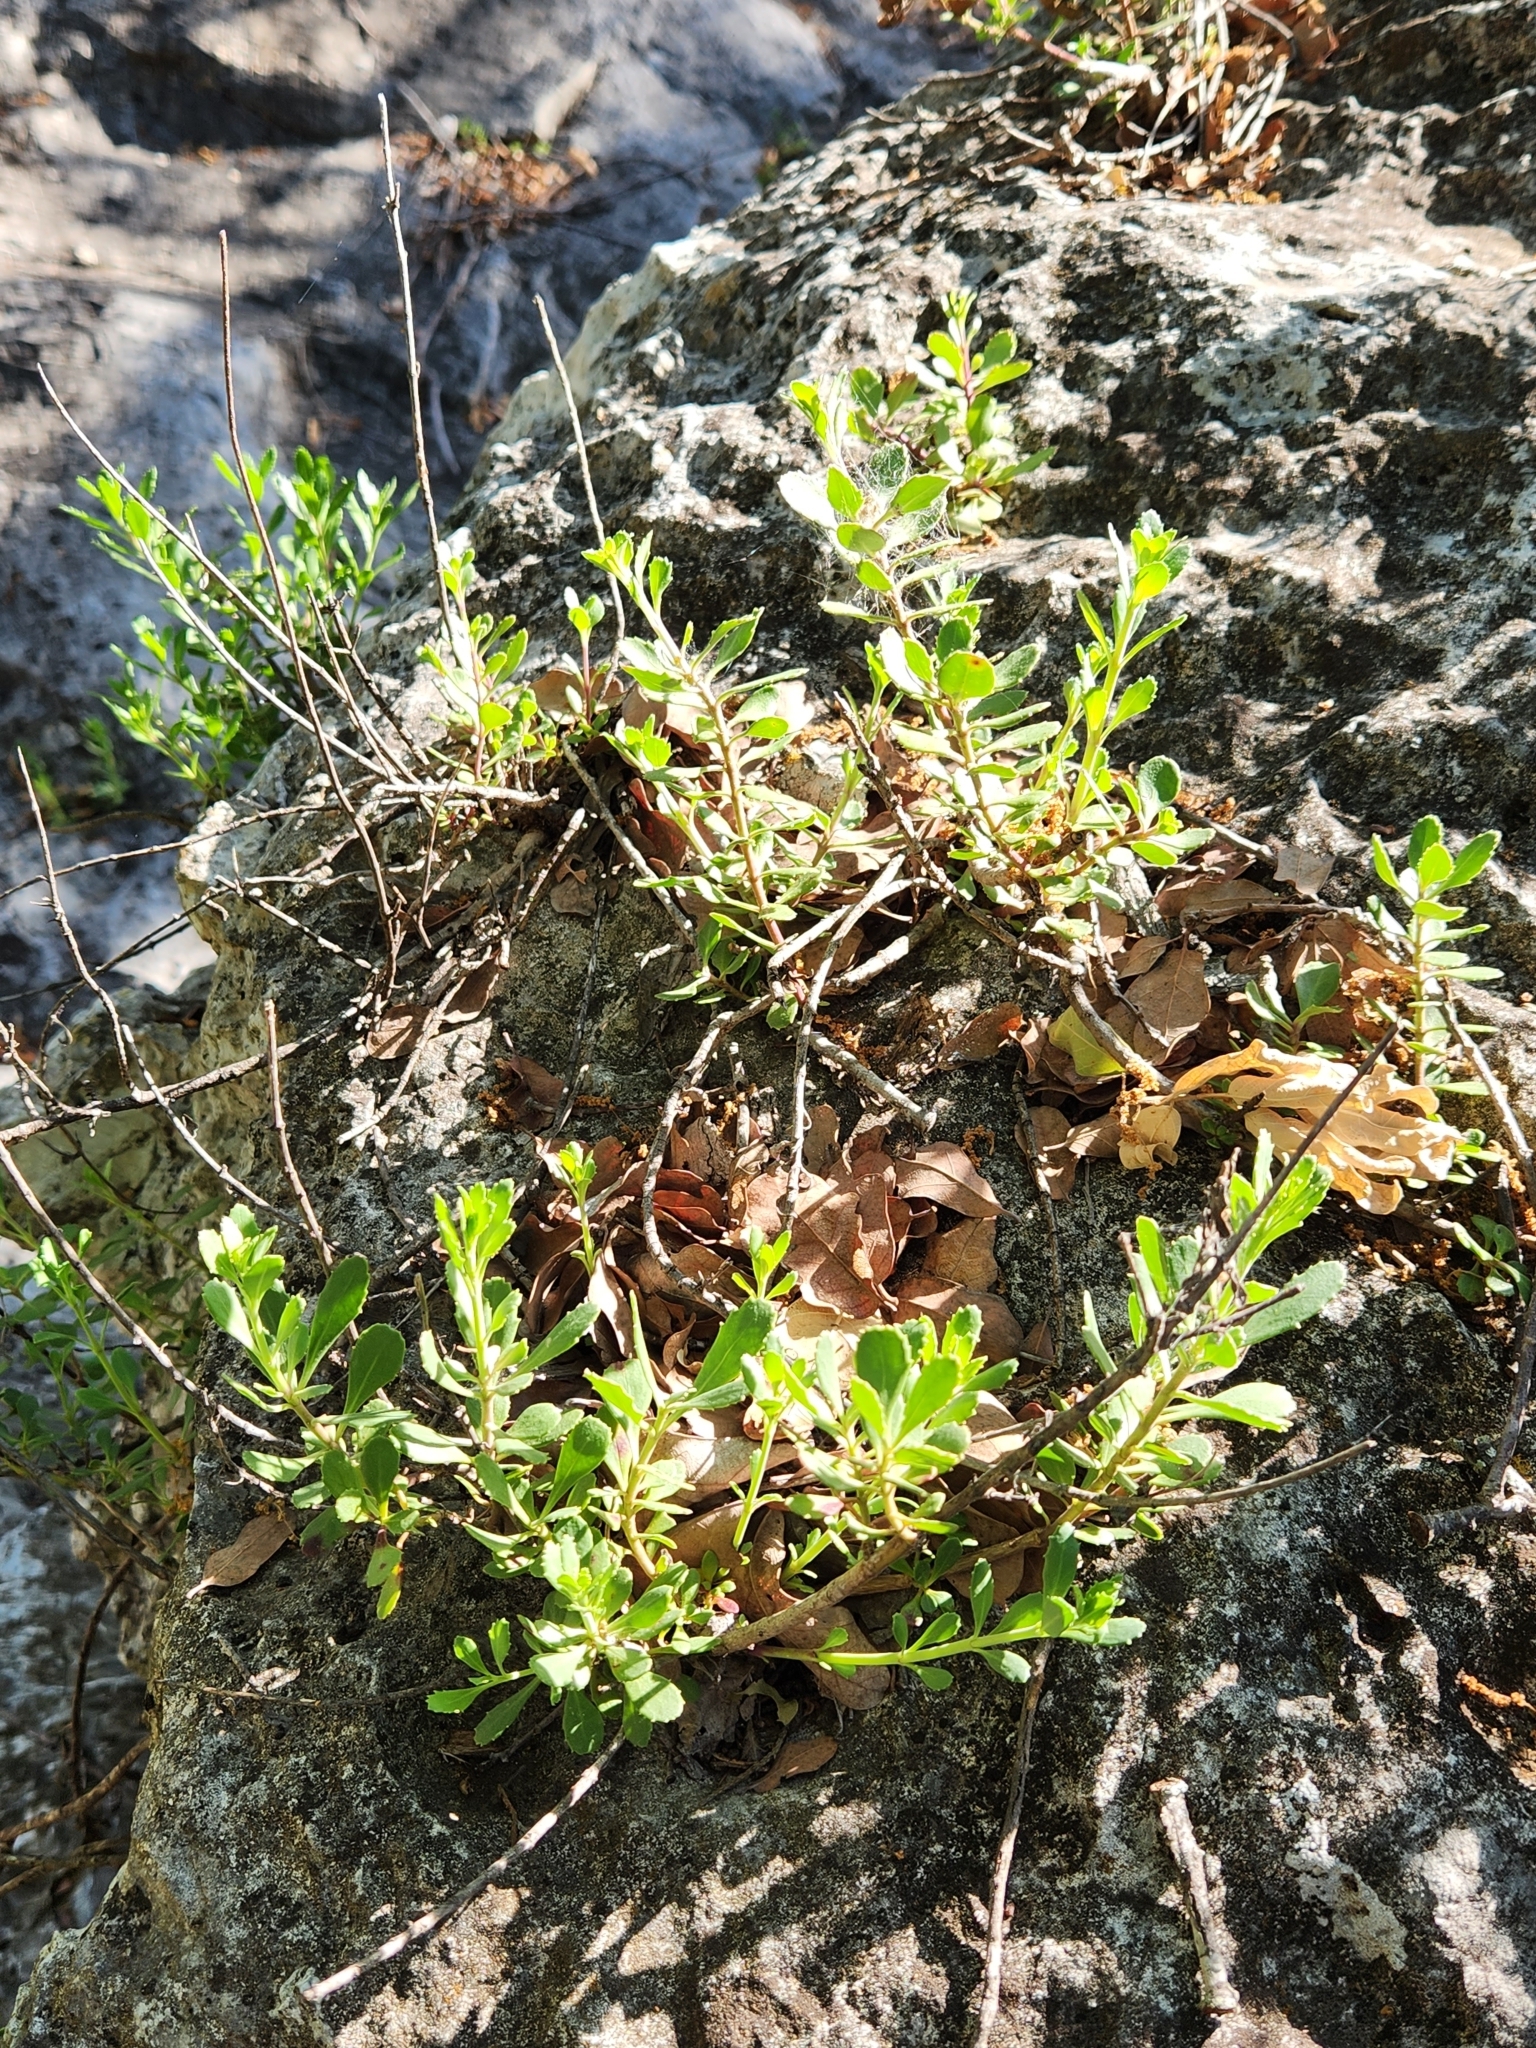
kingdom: Plantae
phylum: Tracheophyta
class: Magnoliopsida
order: Lamiales
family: Plantaginaceae
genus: Penstemon
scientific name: Penstemon baccharifolius
